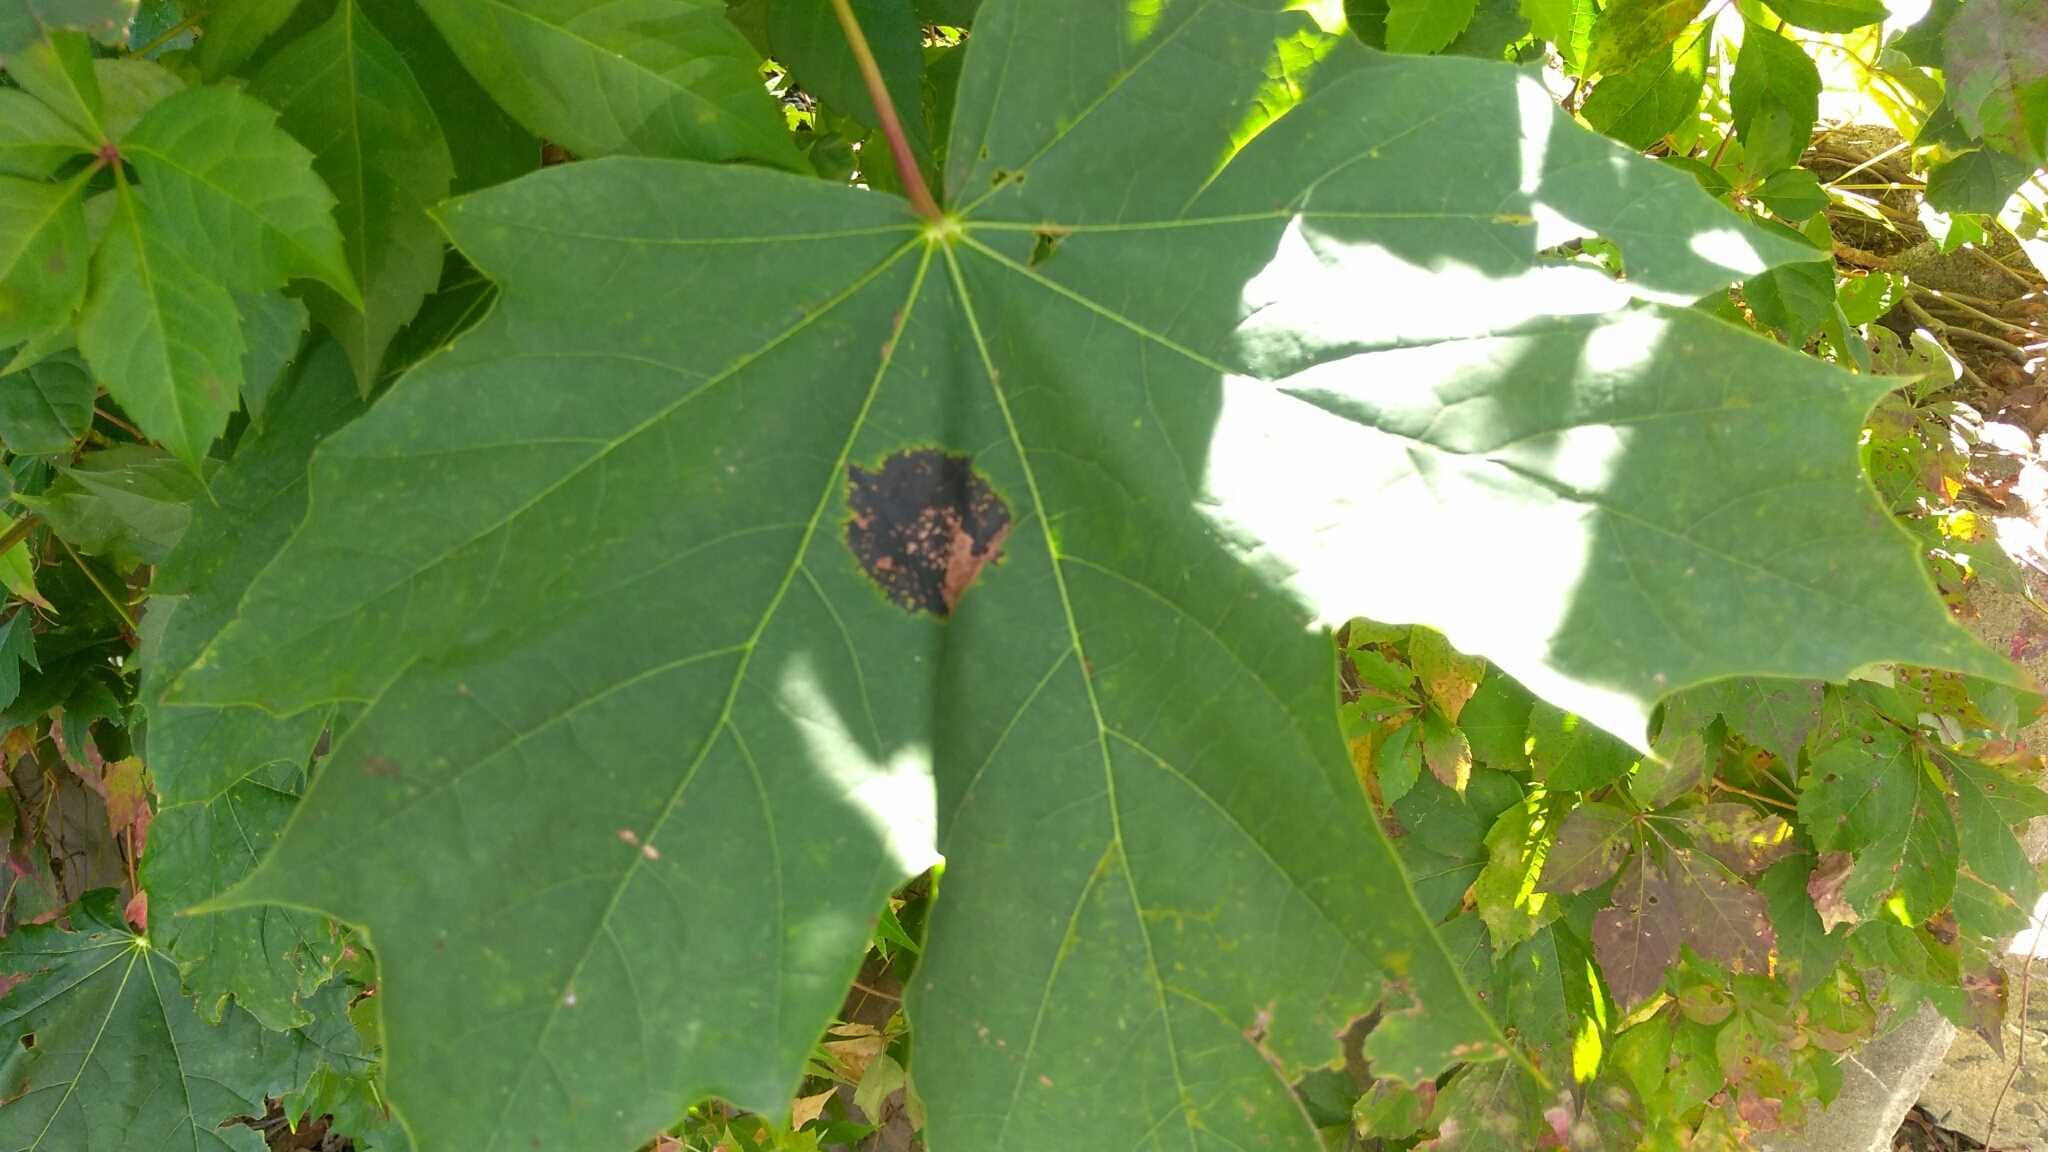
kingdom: Fungi
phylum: Ascomycota
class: Leotiomycetes
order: Rhytismatales
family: Rhytismataceae
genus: Rhytisma
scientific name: Rhytisma acerinum
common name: European tar spot
